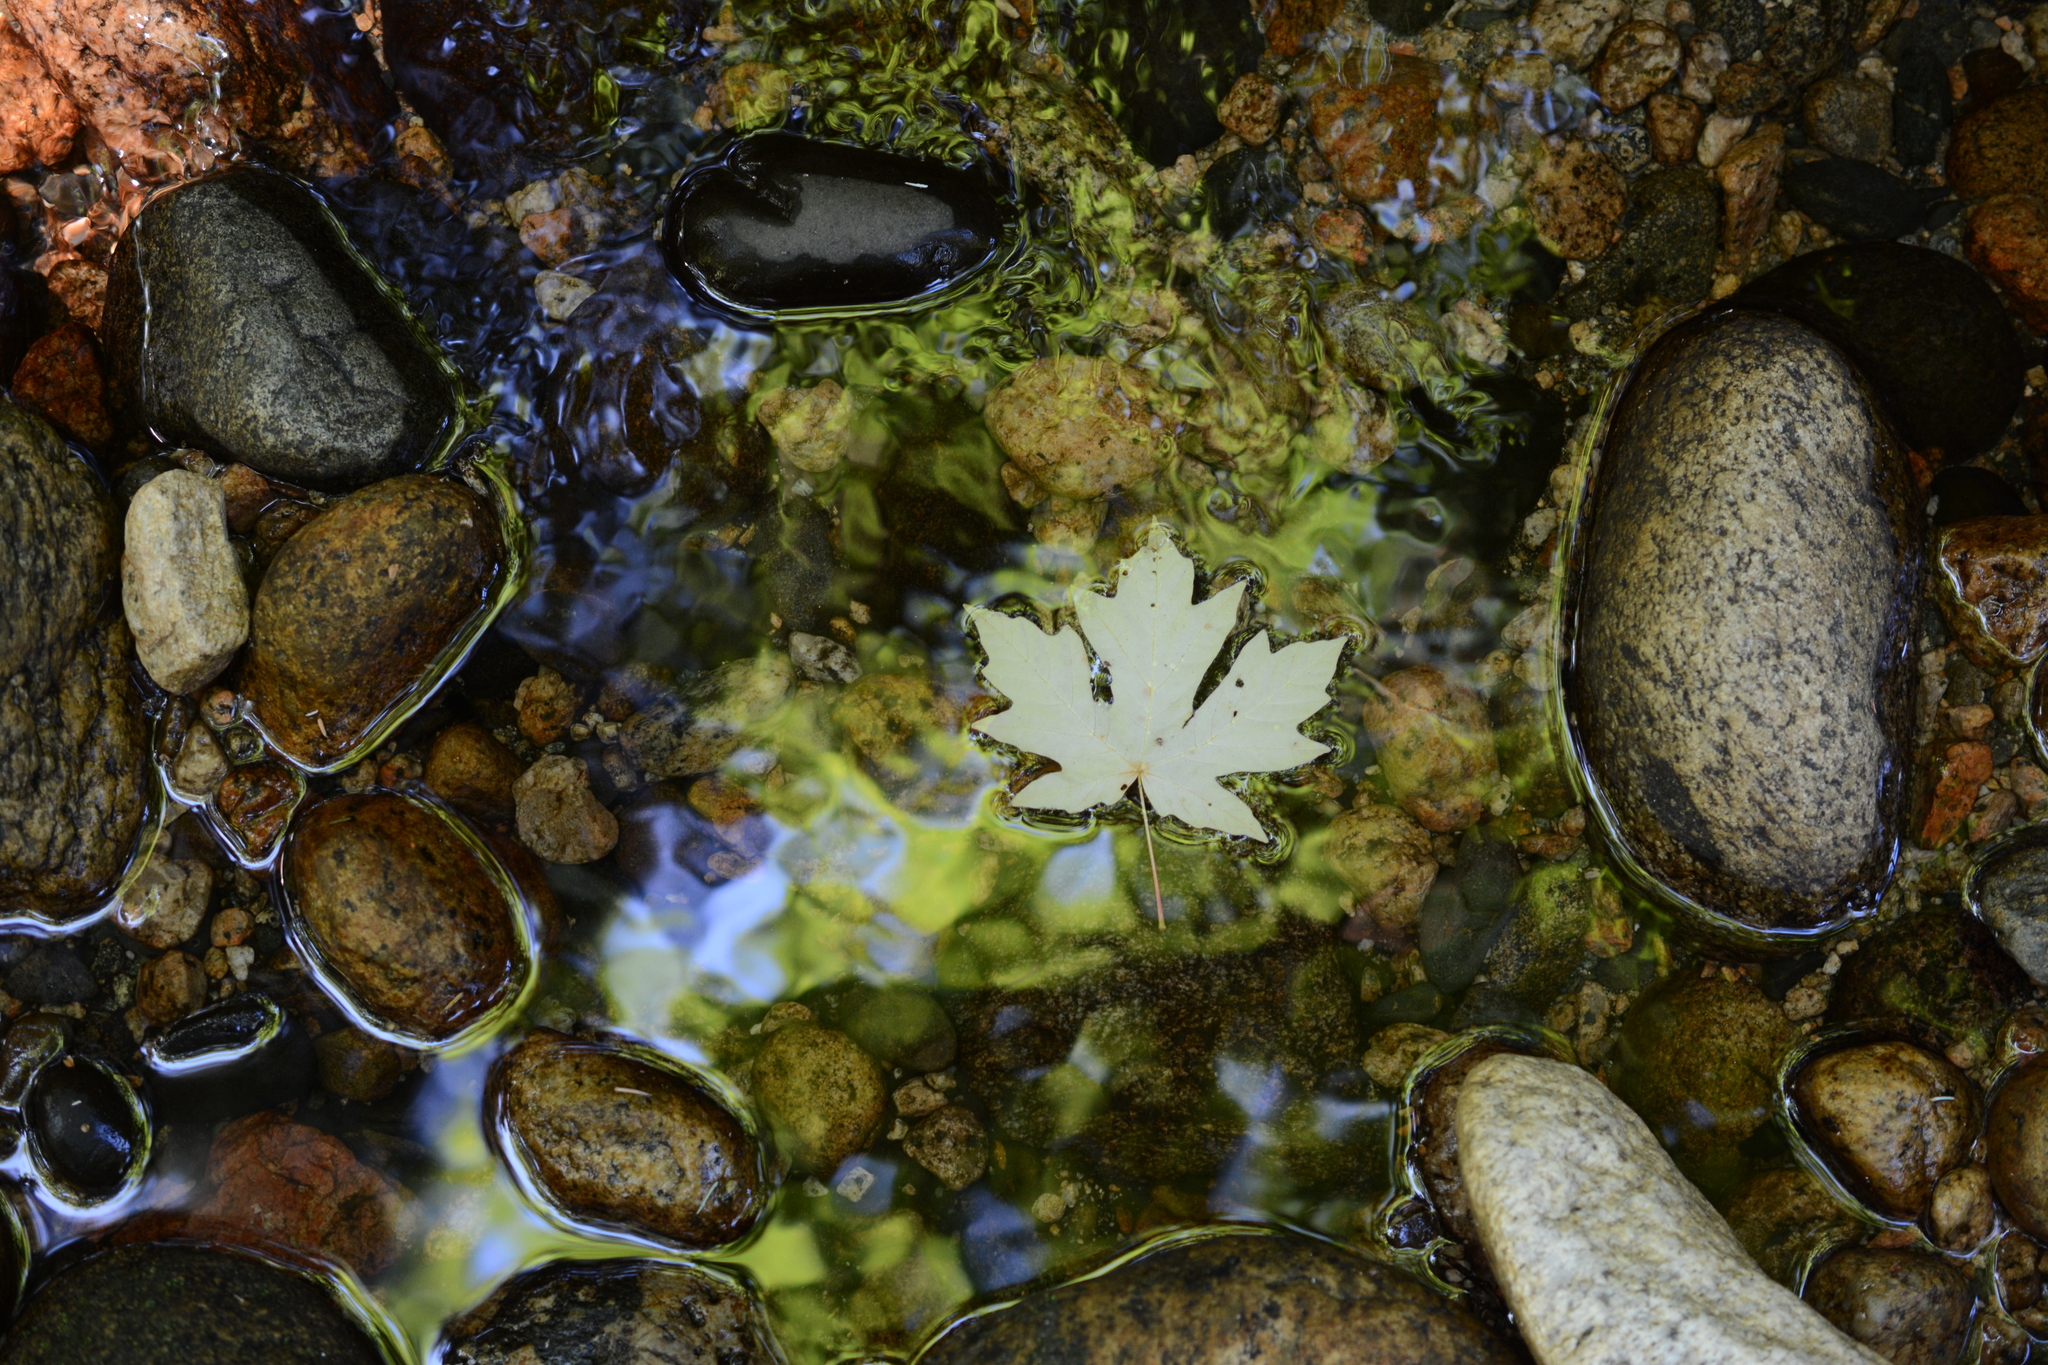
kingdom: Plantae
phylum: Tracheophyta
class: Magnoliopsida
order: Sapindales
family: Sapindaceae
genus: Acer
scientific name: Acer macrophyllum
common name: Oregon maple
